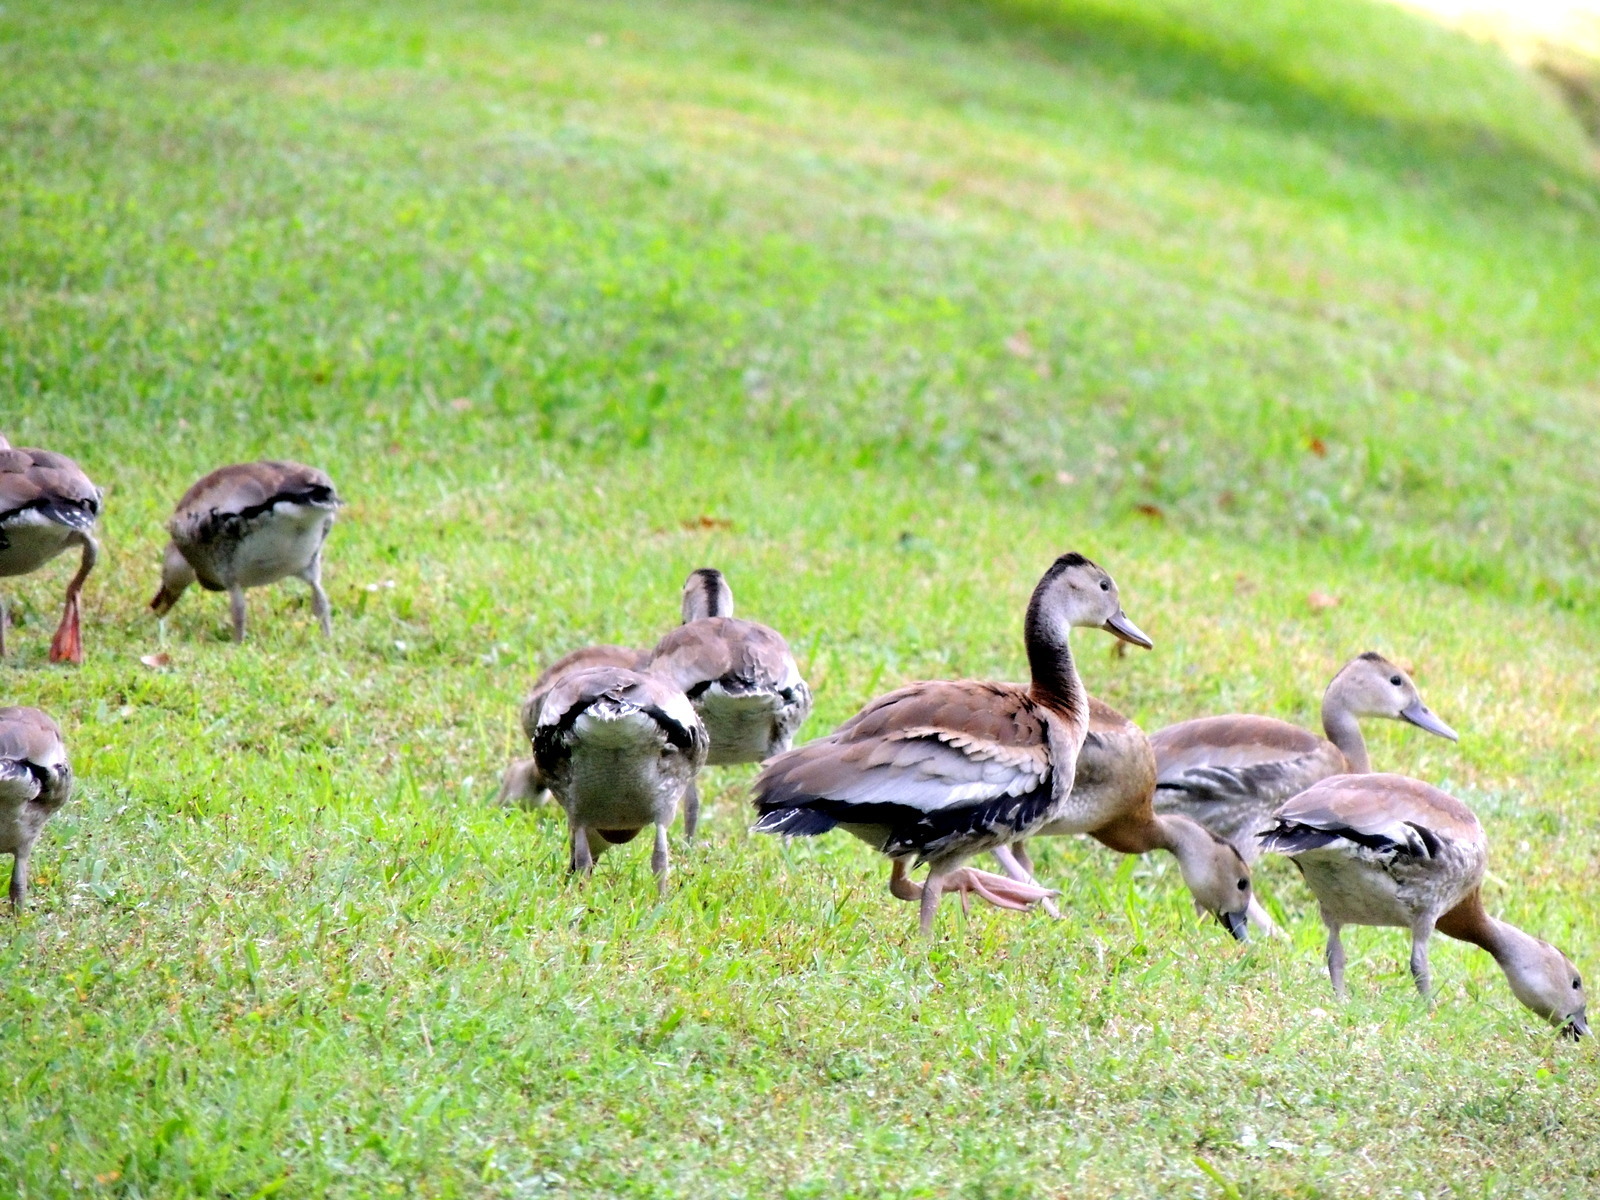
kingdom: Animalia
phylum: Chordata
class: Aves
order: Anseriformes
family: Anatidae
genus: Dendrocygna
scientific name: Dendrocygna autumnalis
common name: Black-bellied whistling duck
